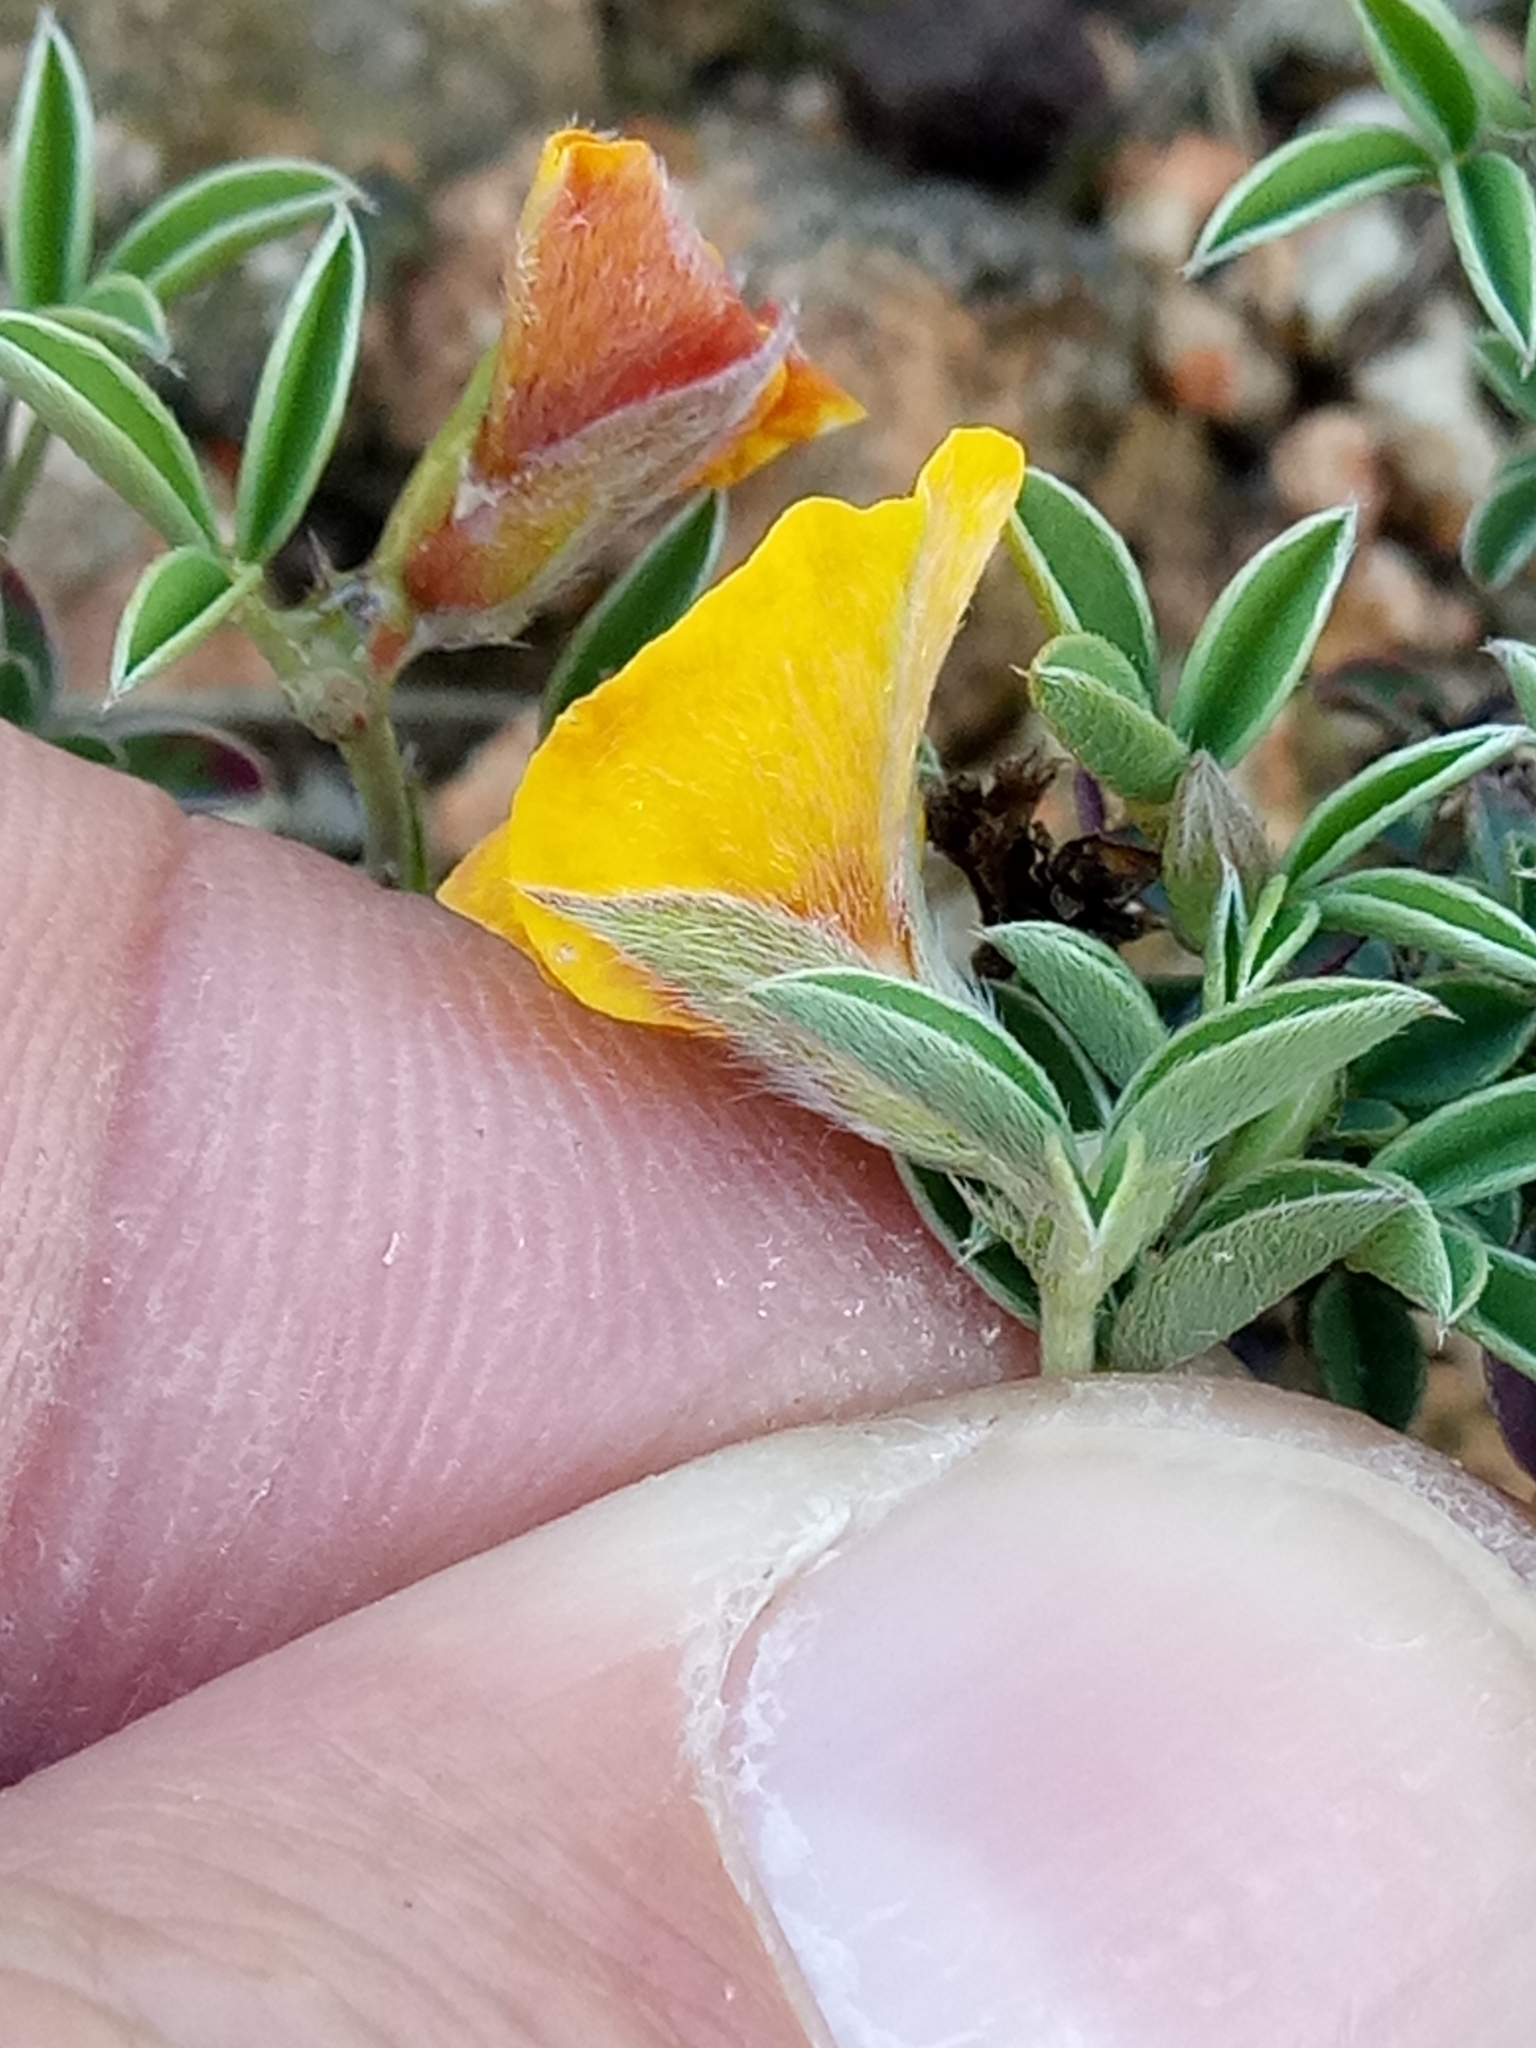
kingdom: Plantae
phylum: Tracheophyta
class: Magnoliopsida
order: Fabales
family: Fabaceae
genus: Argyrolobium
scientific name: Argyrolobium zanonii
